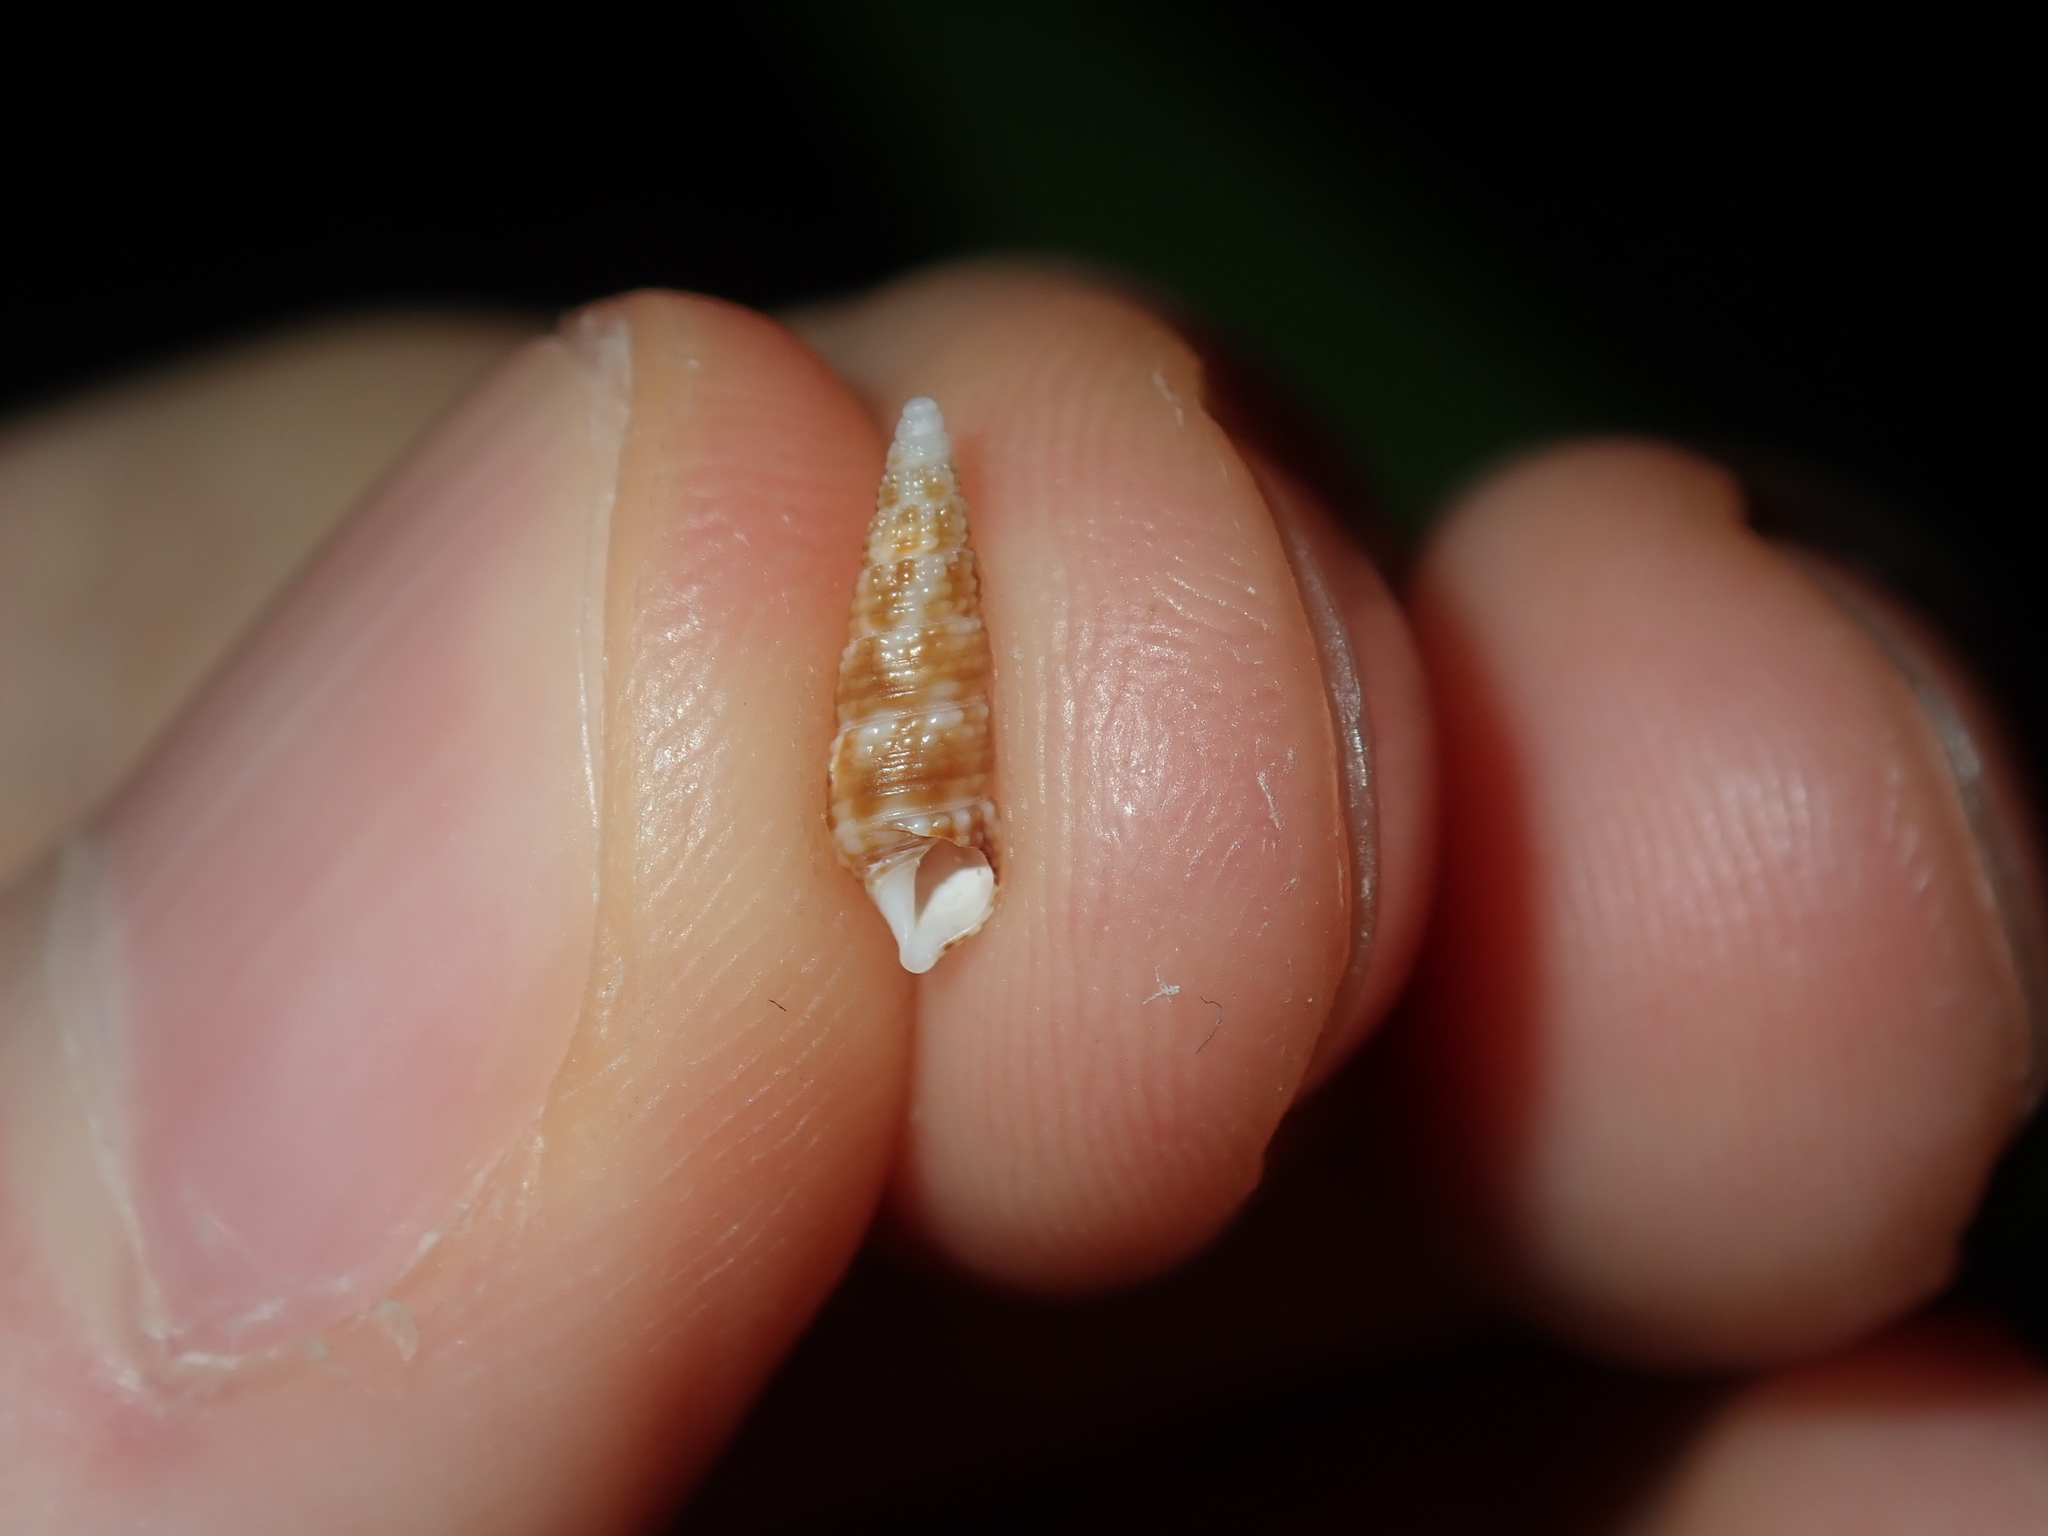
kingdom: Animalia
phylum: Mollusca
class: Gastropoda
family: Cerithiidae
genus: Cacozeliana
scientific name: Cacozeliana granarium
